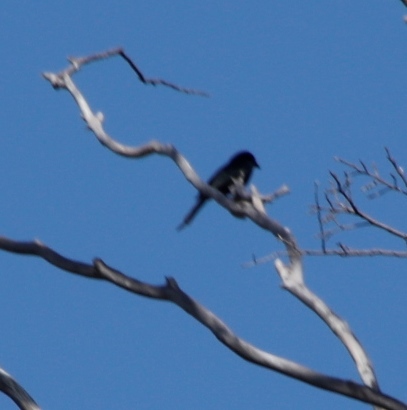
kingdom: Animalia
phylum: Chordata
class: Aves
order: Passeriformes
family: Dicruridae
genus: Dicrurus
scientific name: Dicrurus adsimilis
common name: Fork-tailed drongo
